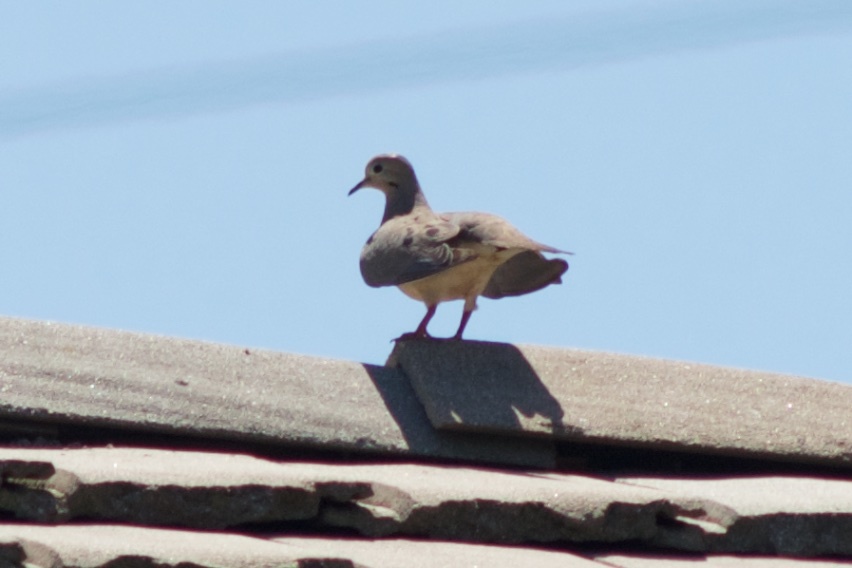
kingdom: Animalia
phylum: Chordata
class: Aves
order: Columbiformes
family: Columbidae
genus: Zenaida
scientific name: Zenaida macroura
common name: Mourning dove
